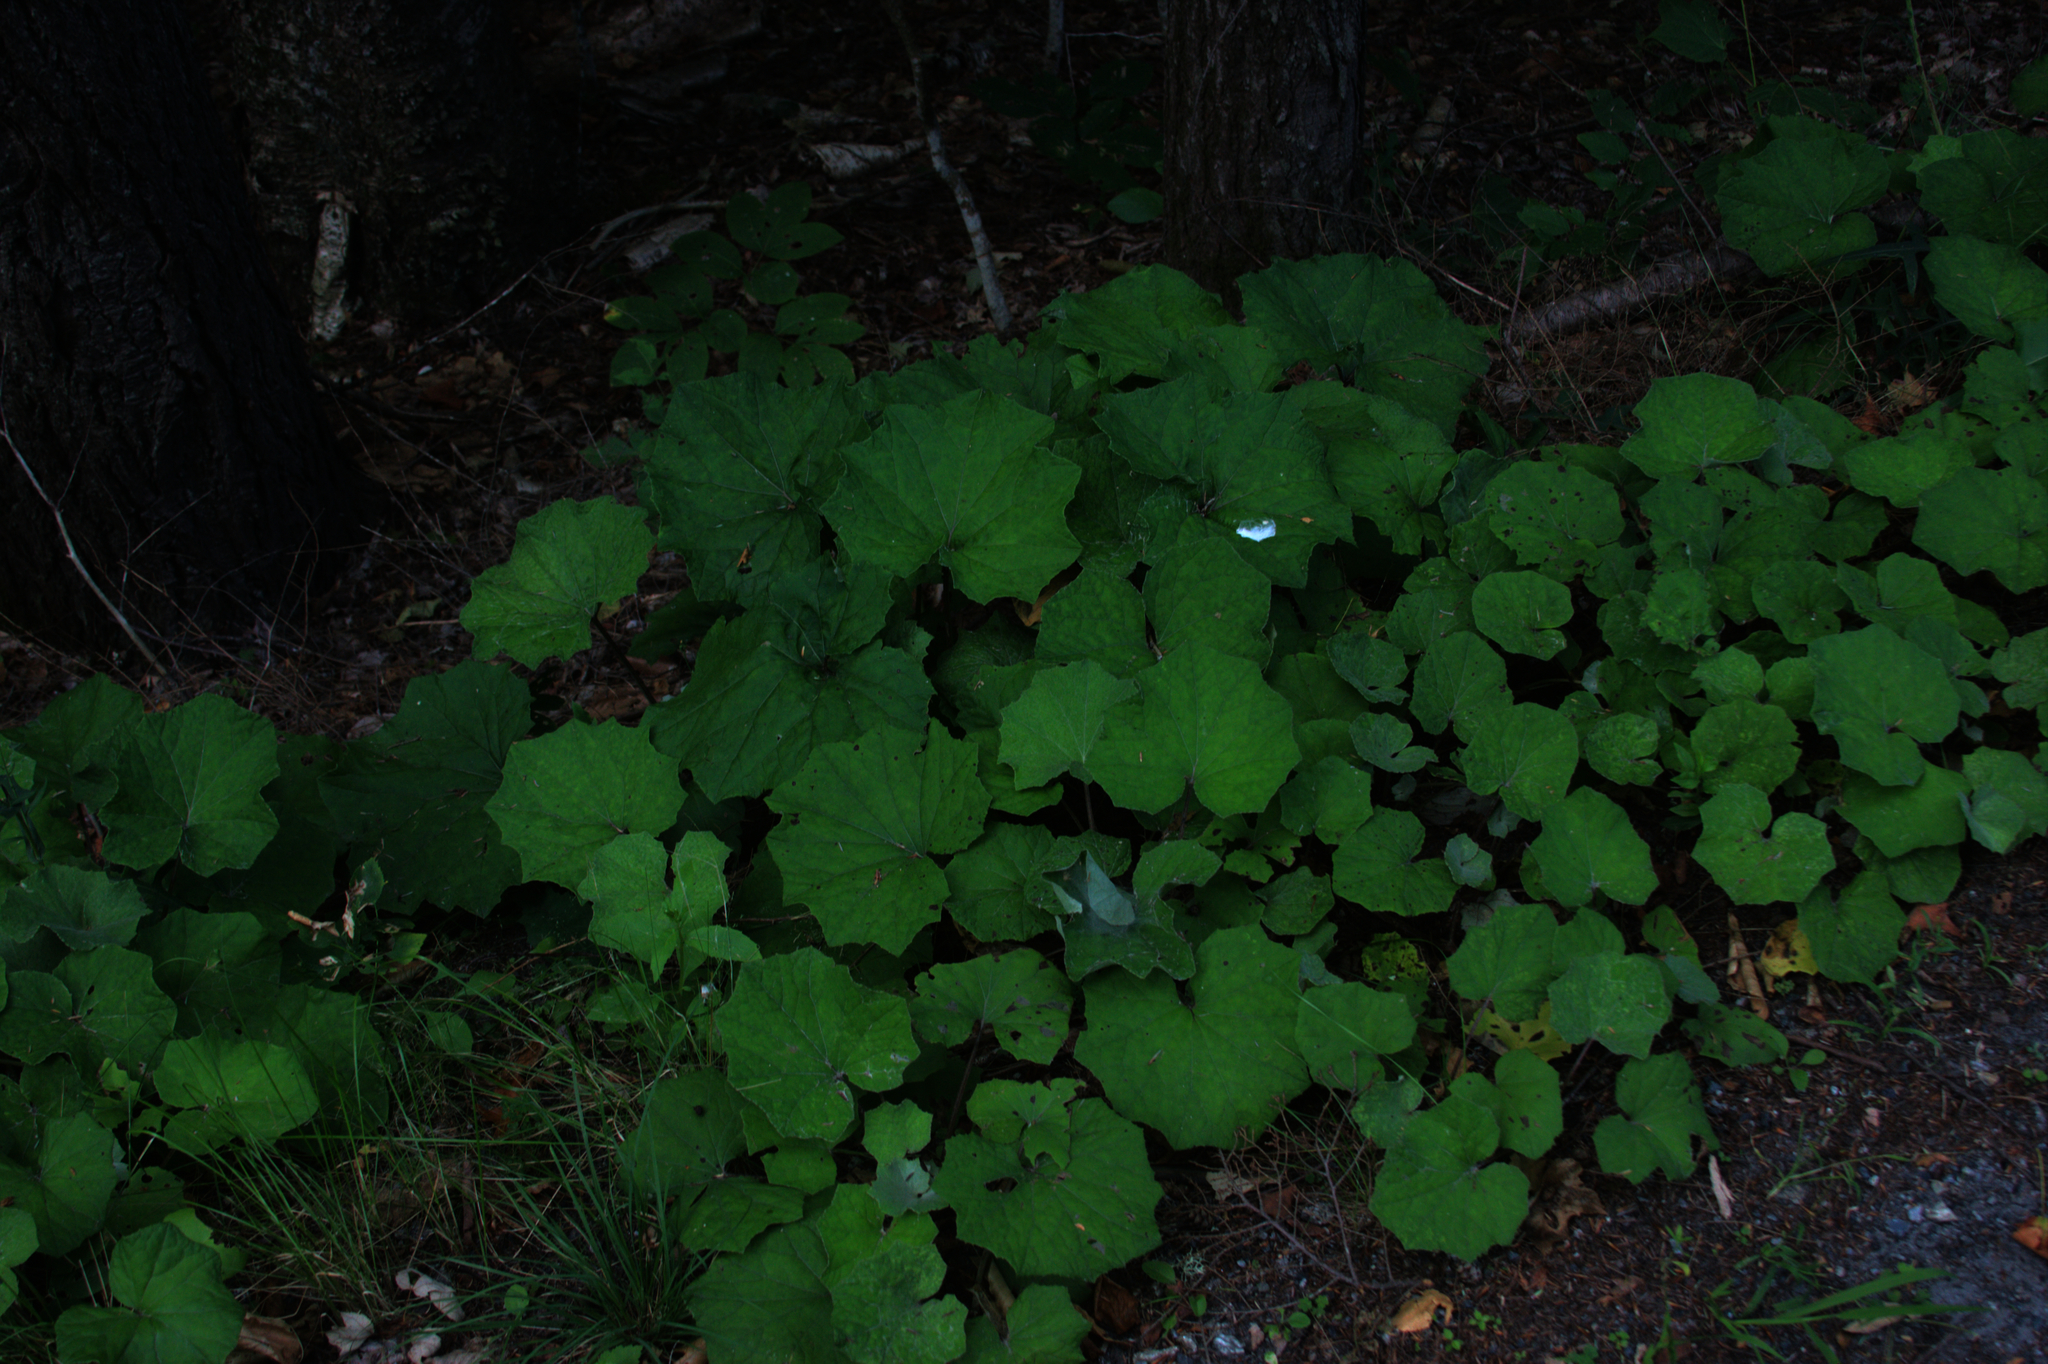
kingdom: Plantae
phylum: Tracheophyta
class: Magnoliopsida
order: Asterales
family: Asteraceae
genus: Tussilago
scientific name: Tussilago farfara
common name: Coltsfoot
